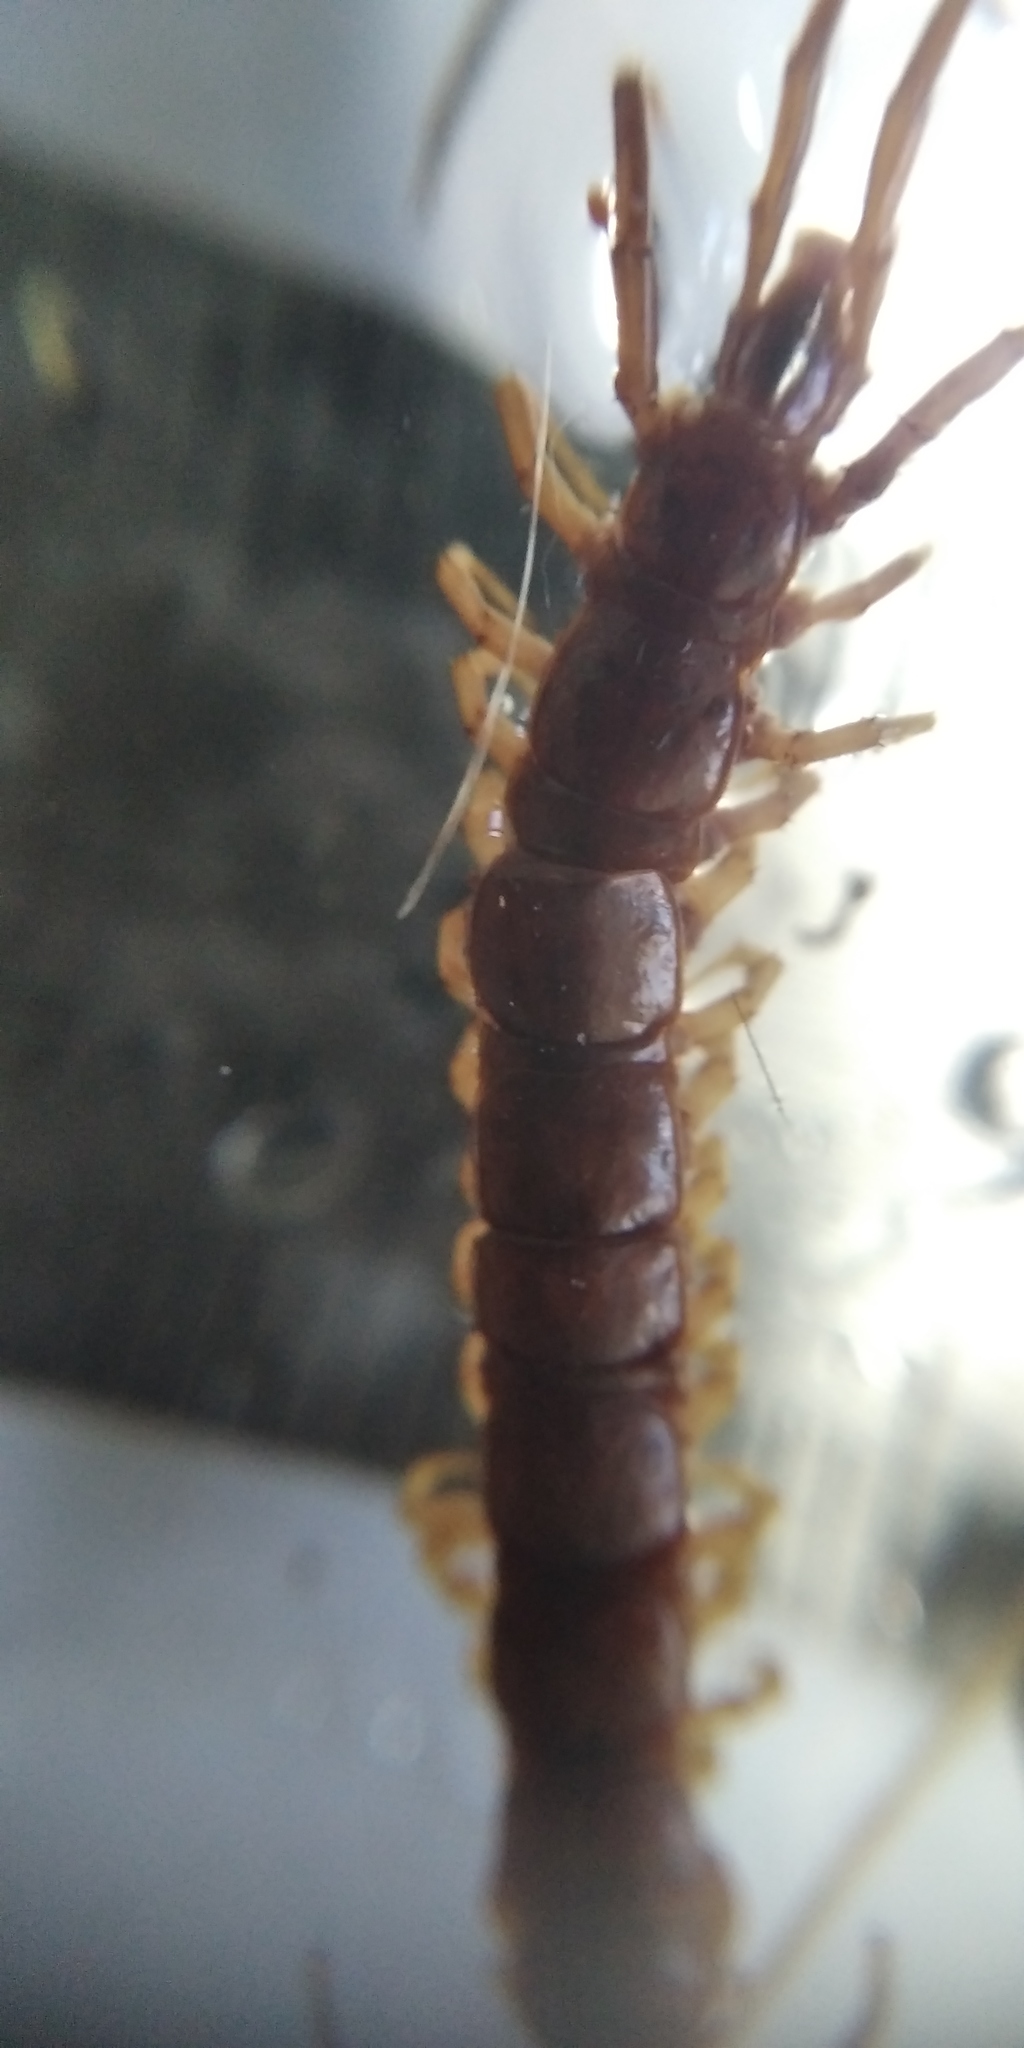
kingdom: Animalia
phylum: Arthropoda
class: Chilopoda
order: Lithobiomorpha
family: Lithobiidae
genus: Lithobius
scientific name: Lithobius forficatus
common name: Centipede
